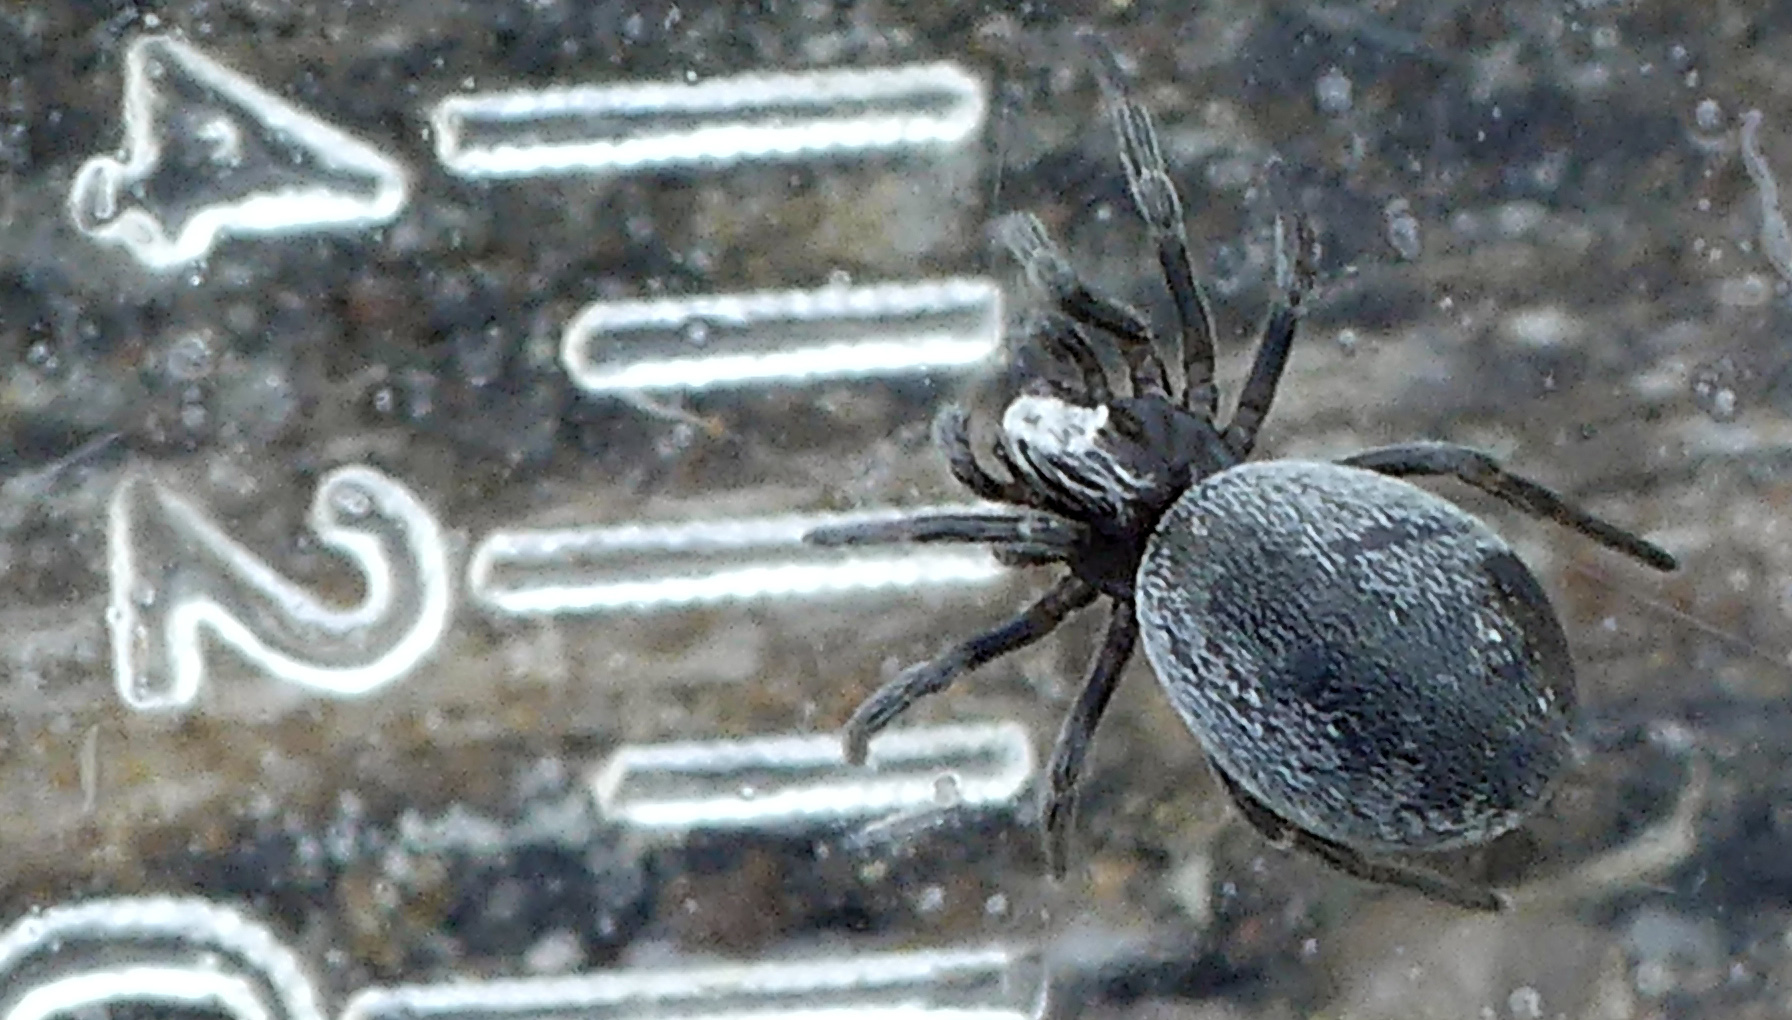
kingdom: Animalia
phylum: Arthropoda
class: Arachnida
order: Araneae
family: Dictynidae
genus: Brigittea
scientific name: Brigittea latens
